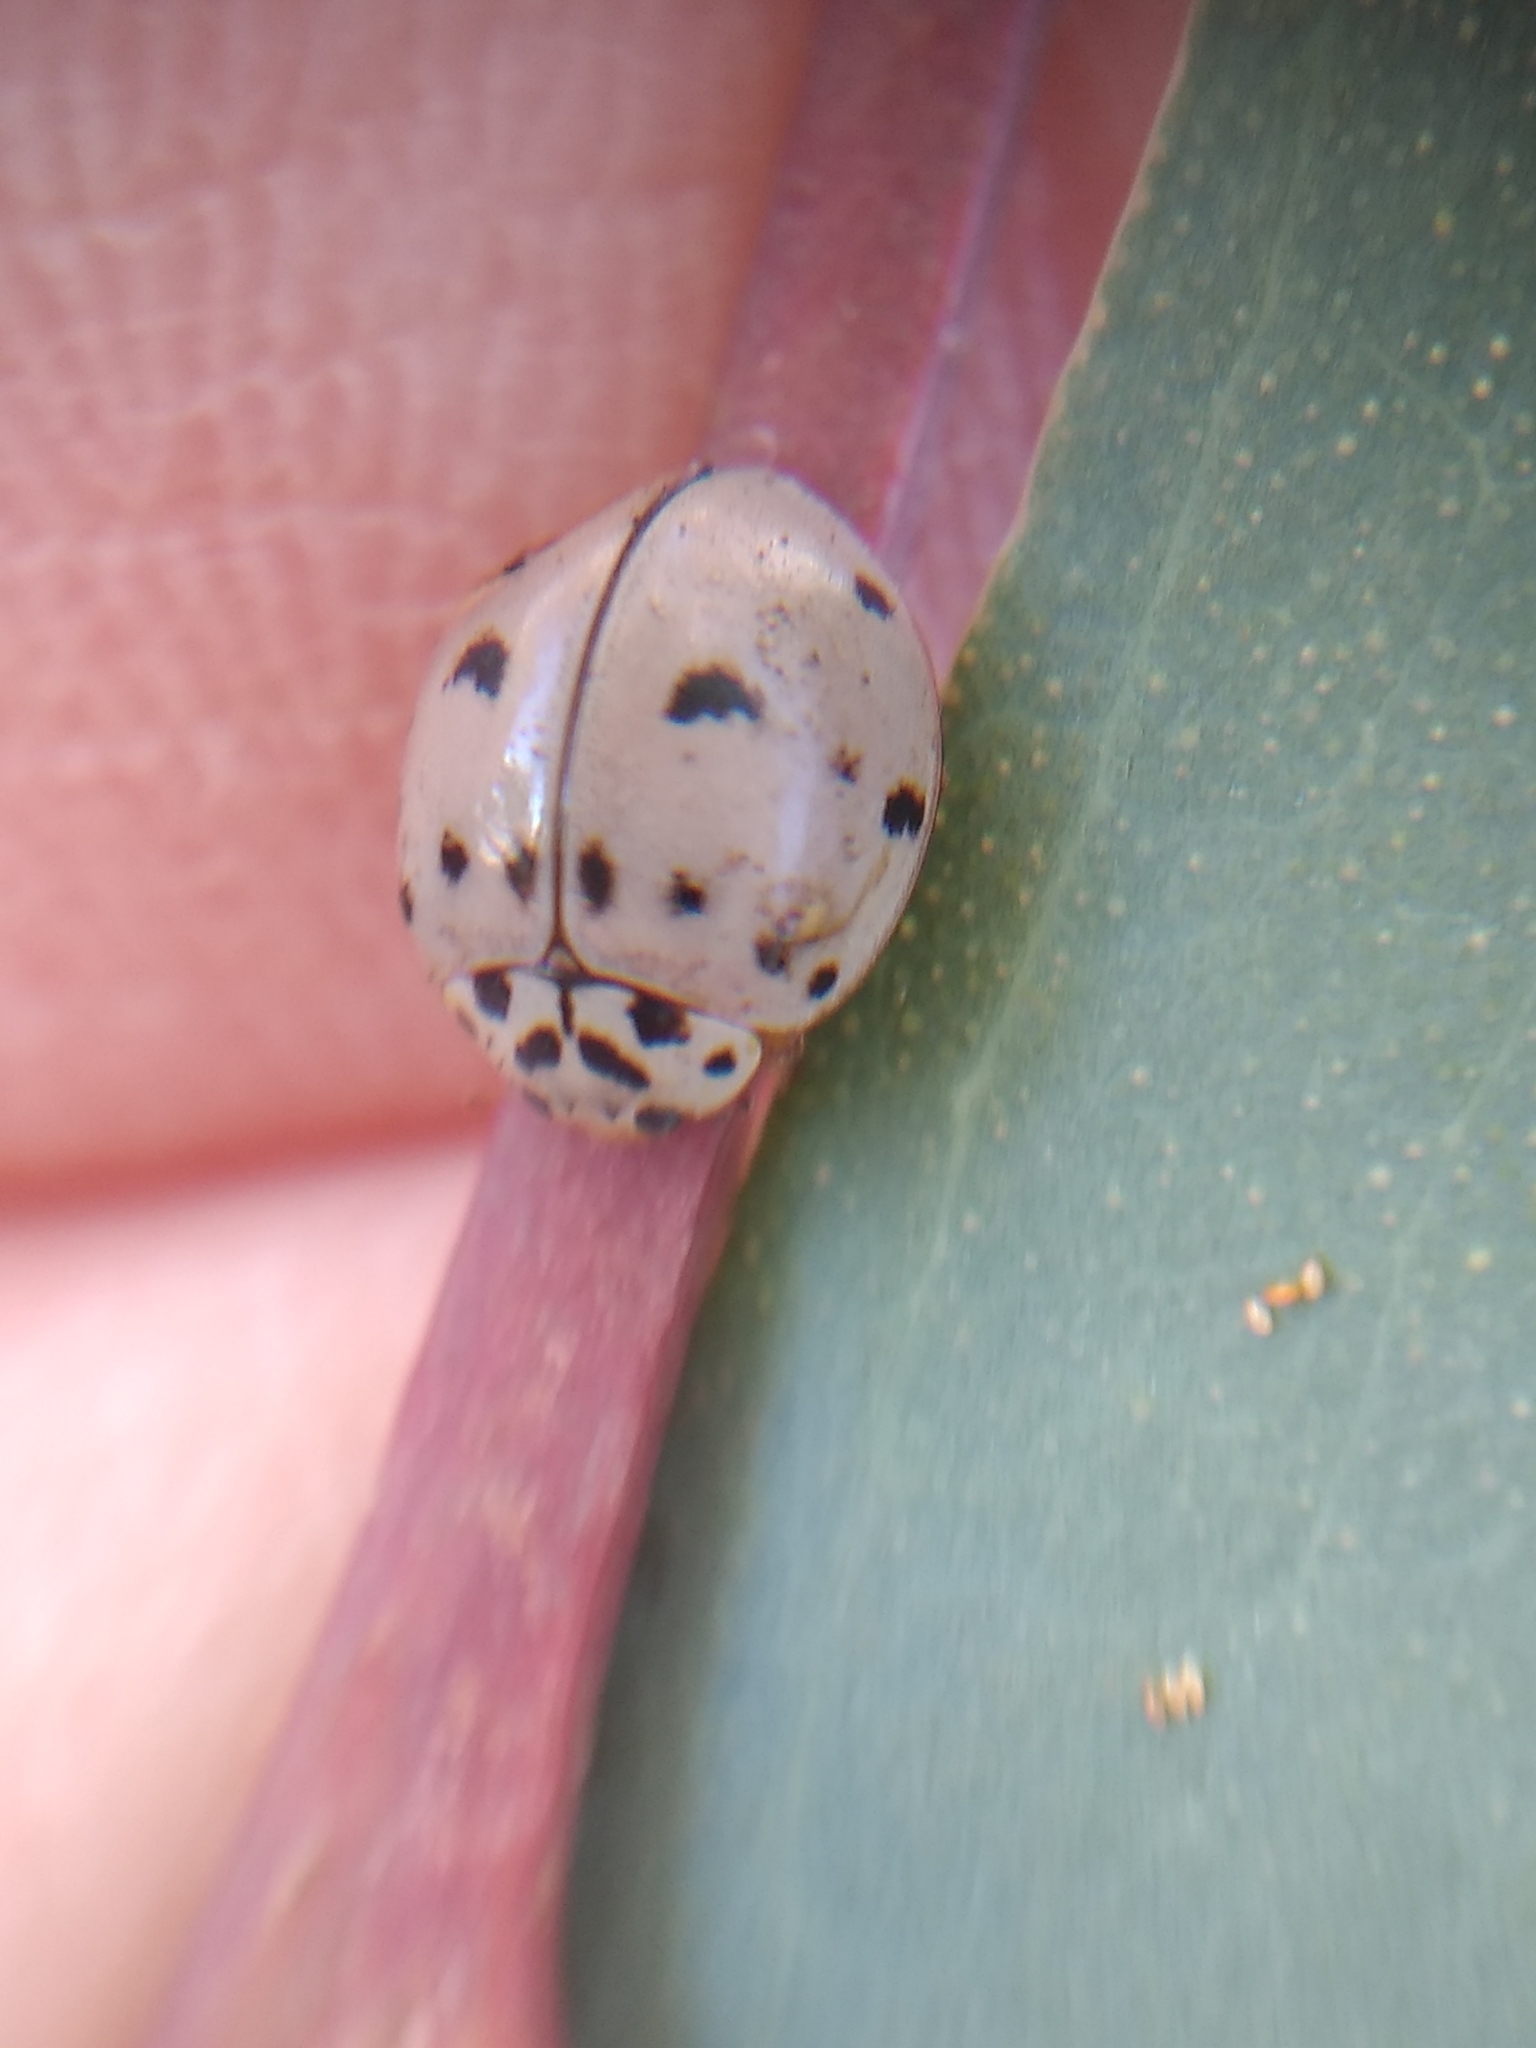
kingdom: Animalia
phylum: Arthropoda
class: Insecta
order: Coleoptera
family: Coccinellidae
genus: Olla
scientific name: Olla v-nigrum
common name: Ashy gray lady beetle
